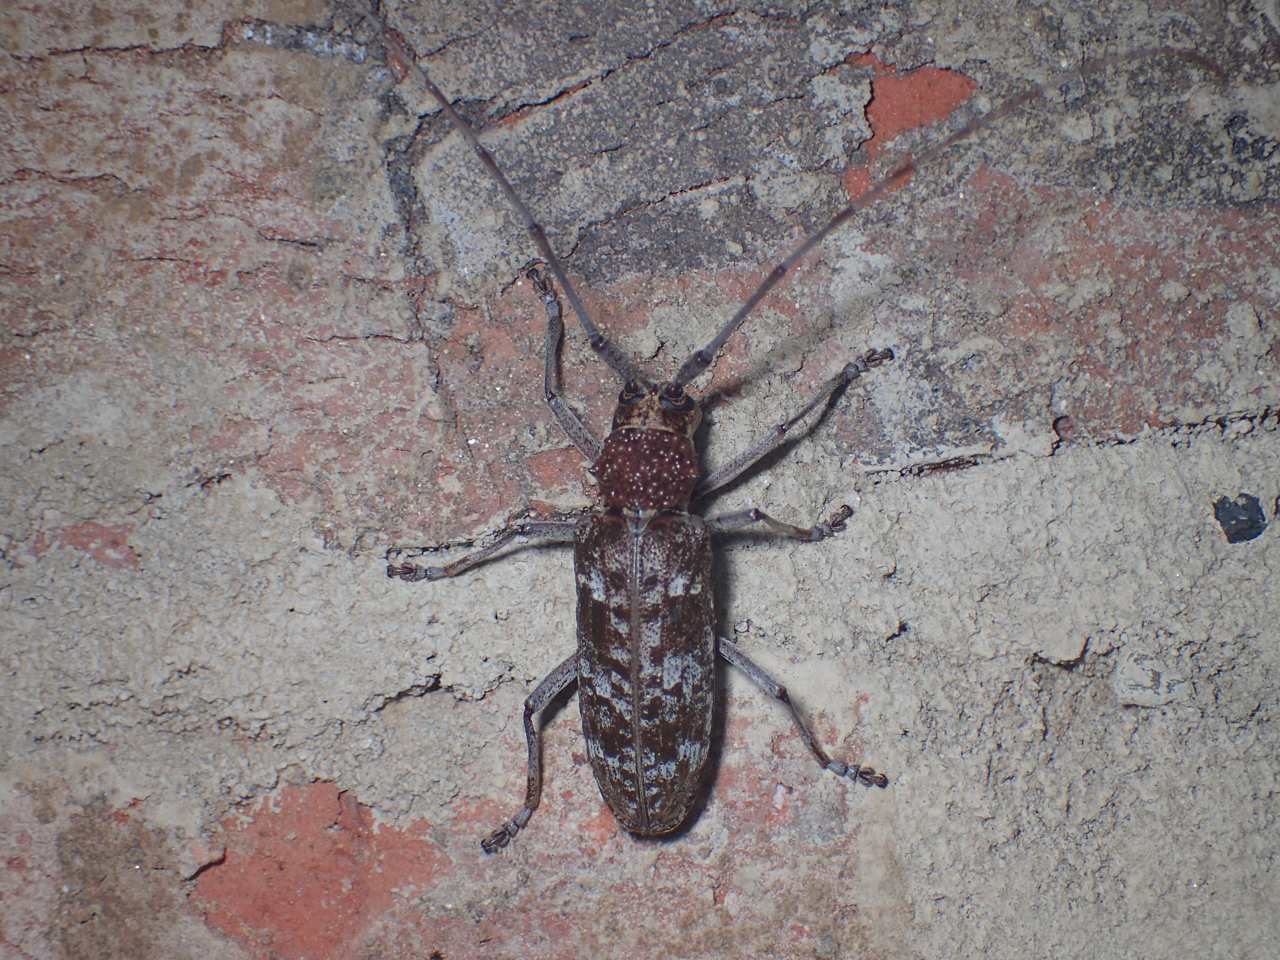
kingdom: Animalia
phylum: Arthropoda
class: Insecta
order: Coleoptera
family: Cerambycidae
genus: Monochamus
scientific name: Monochamus titillator
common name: Southern pine sawyer
